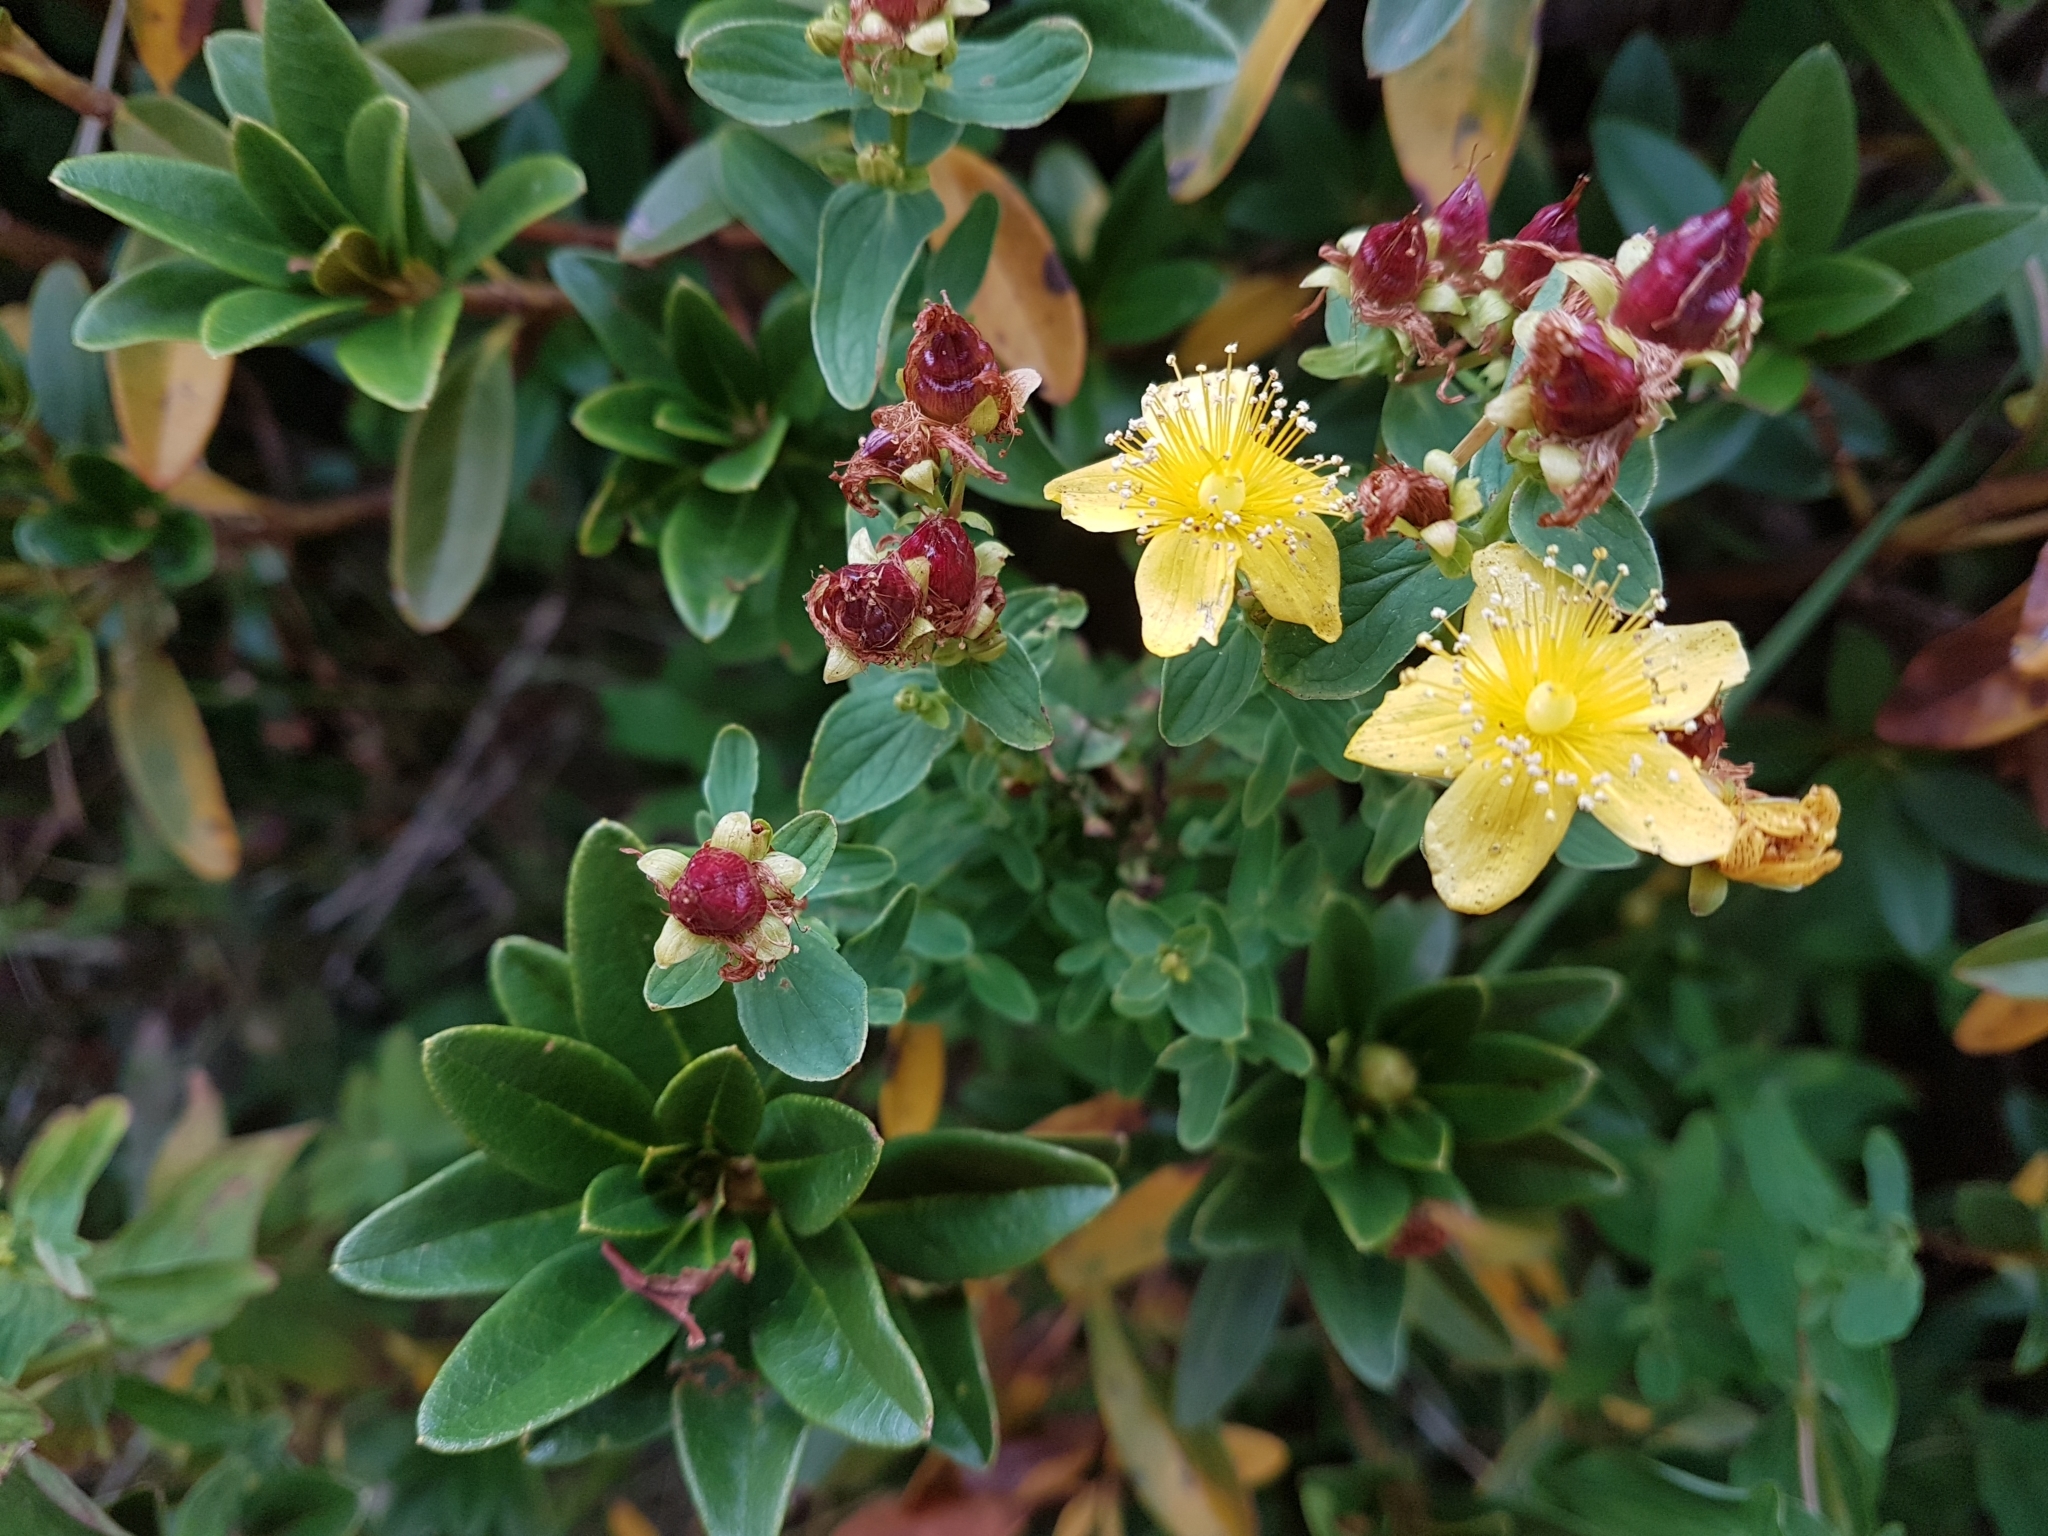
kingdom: Plantae
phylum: Tracheophyta
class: Magnoliopsida
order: Malpighiales
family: Hypericaceae
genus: Hypericum
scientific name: Hypericum maculatum
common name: Imperforate st. john's-wort
